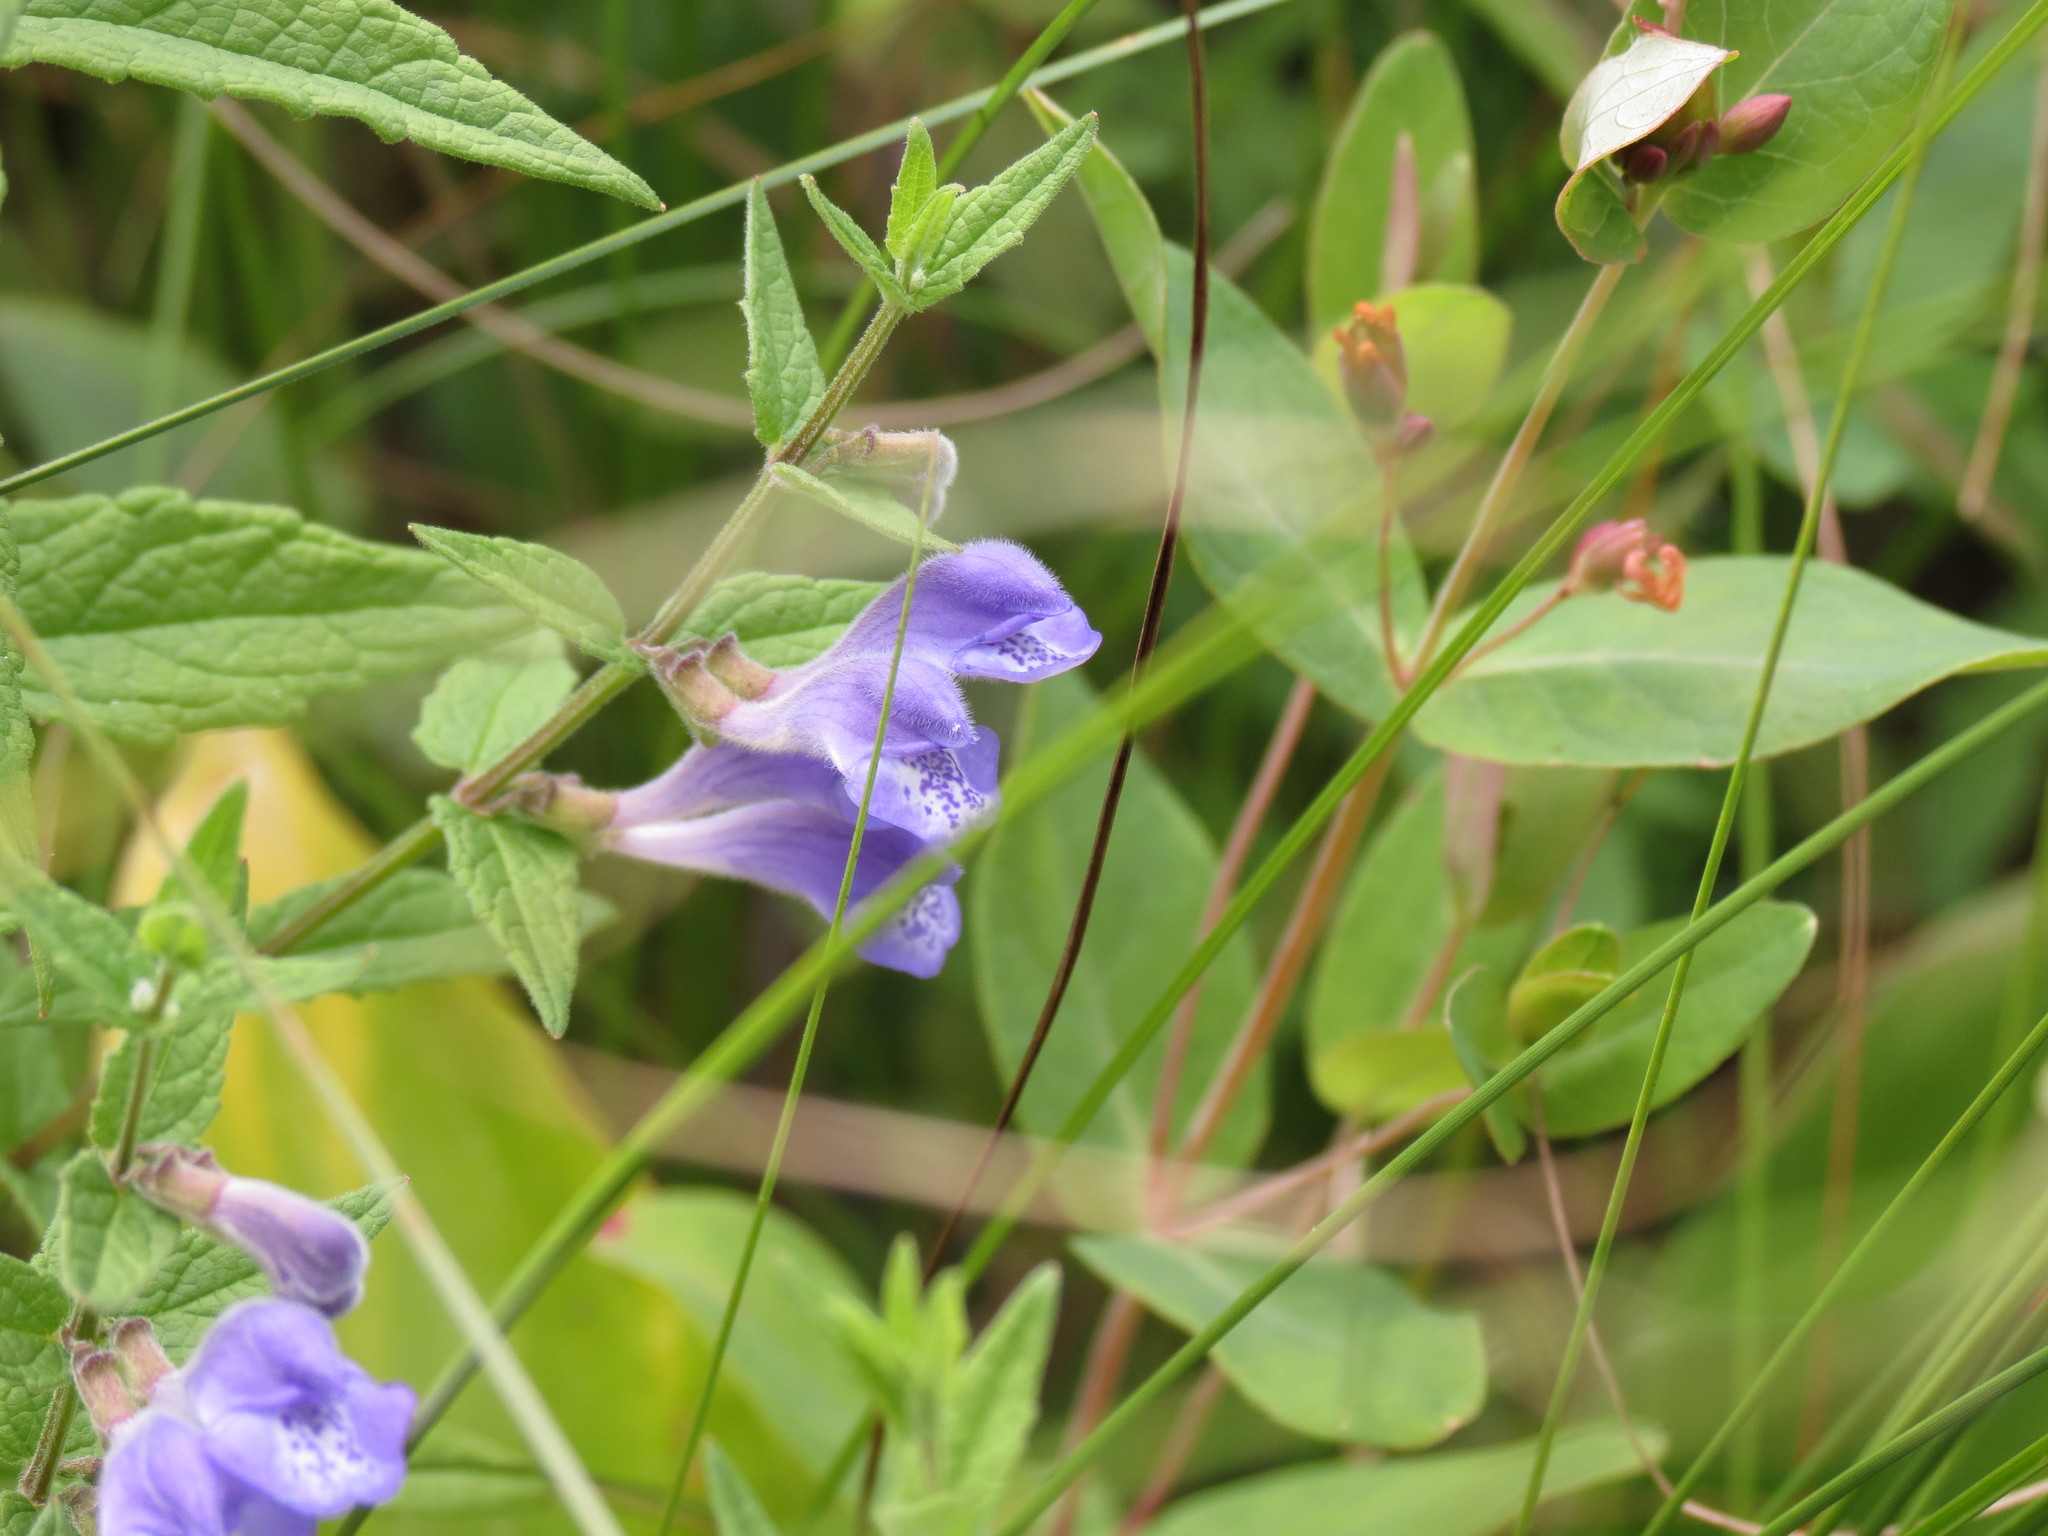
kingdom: Plantae
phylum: Tracheophyta
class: Magnoliopsida
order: Lamiales
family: Lamiaceae
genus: Scutellaria
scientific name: Scutellaria galericulata
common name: Skullcap
